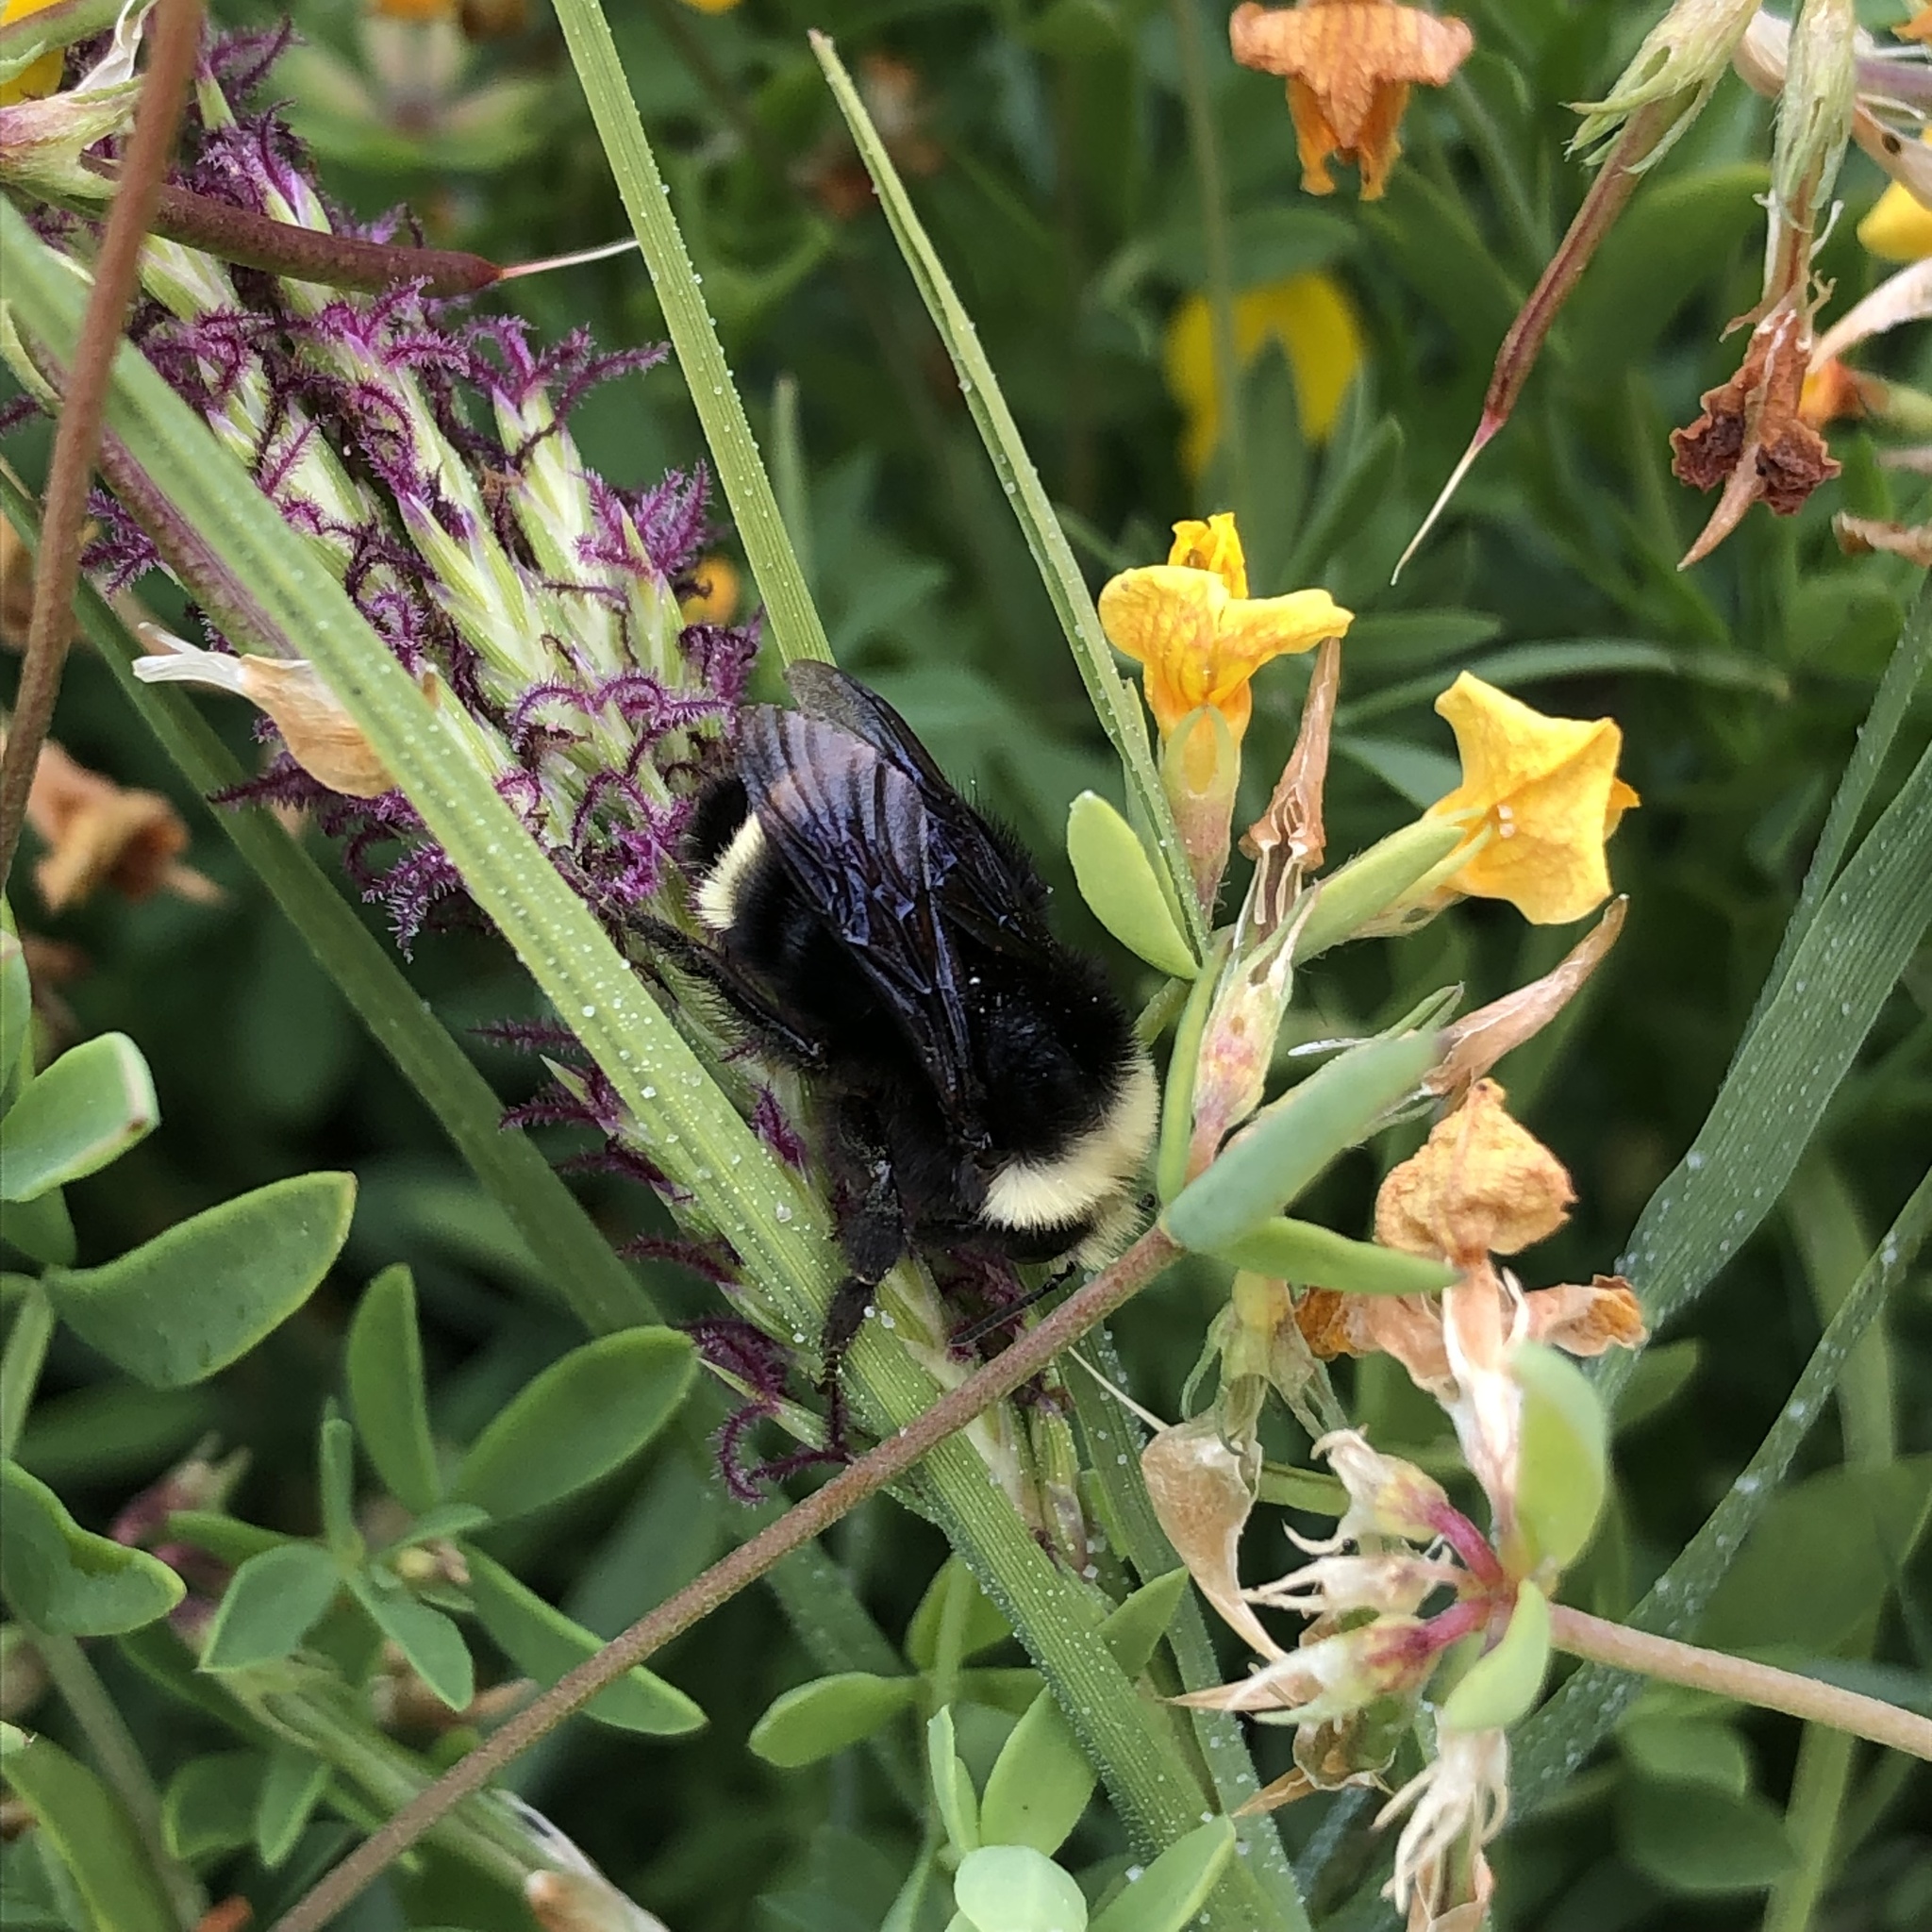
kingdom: Animalia
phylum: Arthropoda
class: Insecta
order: Hymenoptera
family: Apidae
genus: Bombus
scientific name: Bombus vosnesenskii
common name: Vosnesensky bumble bee
